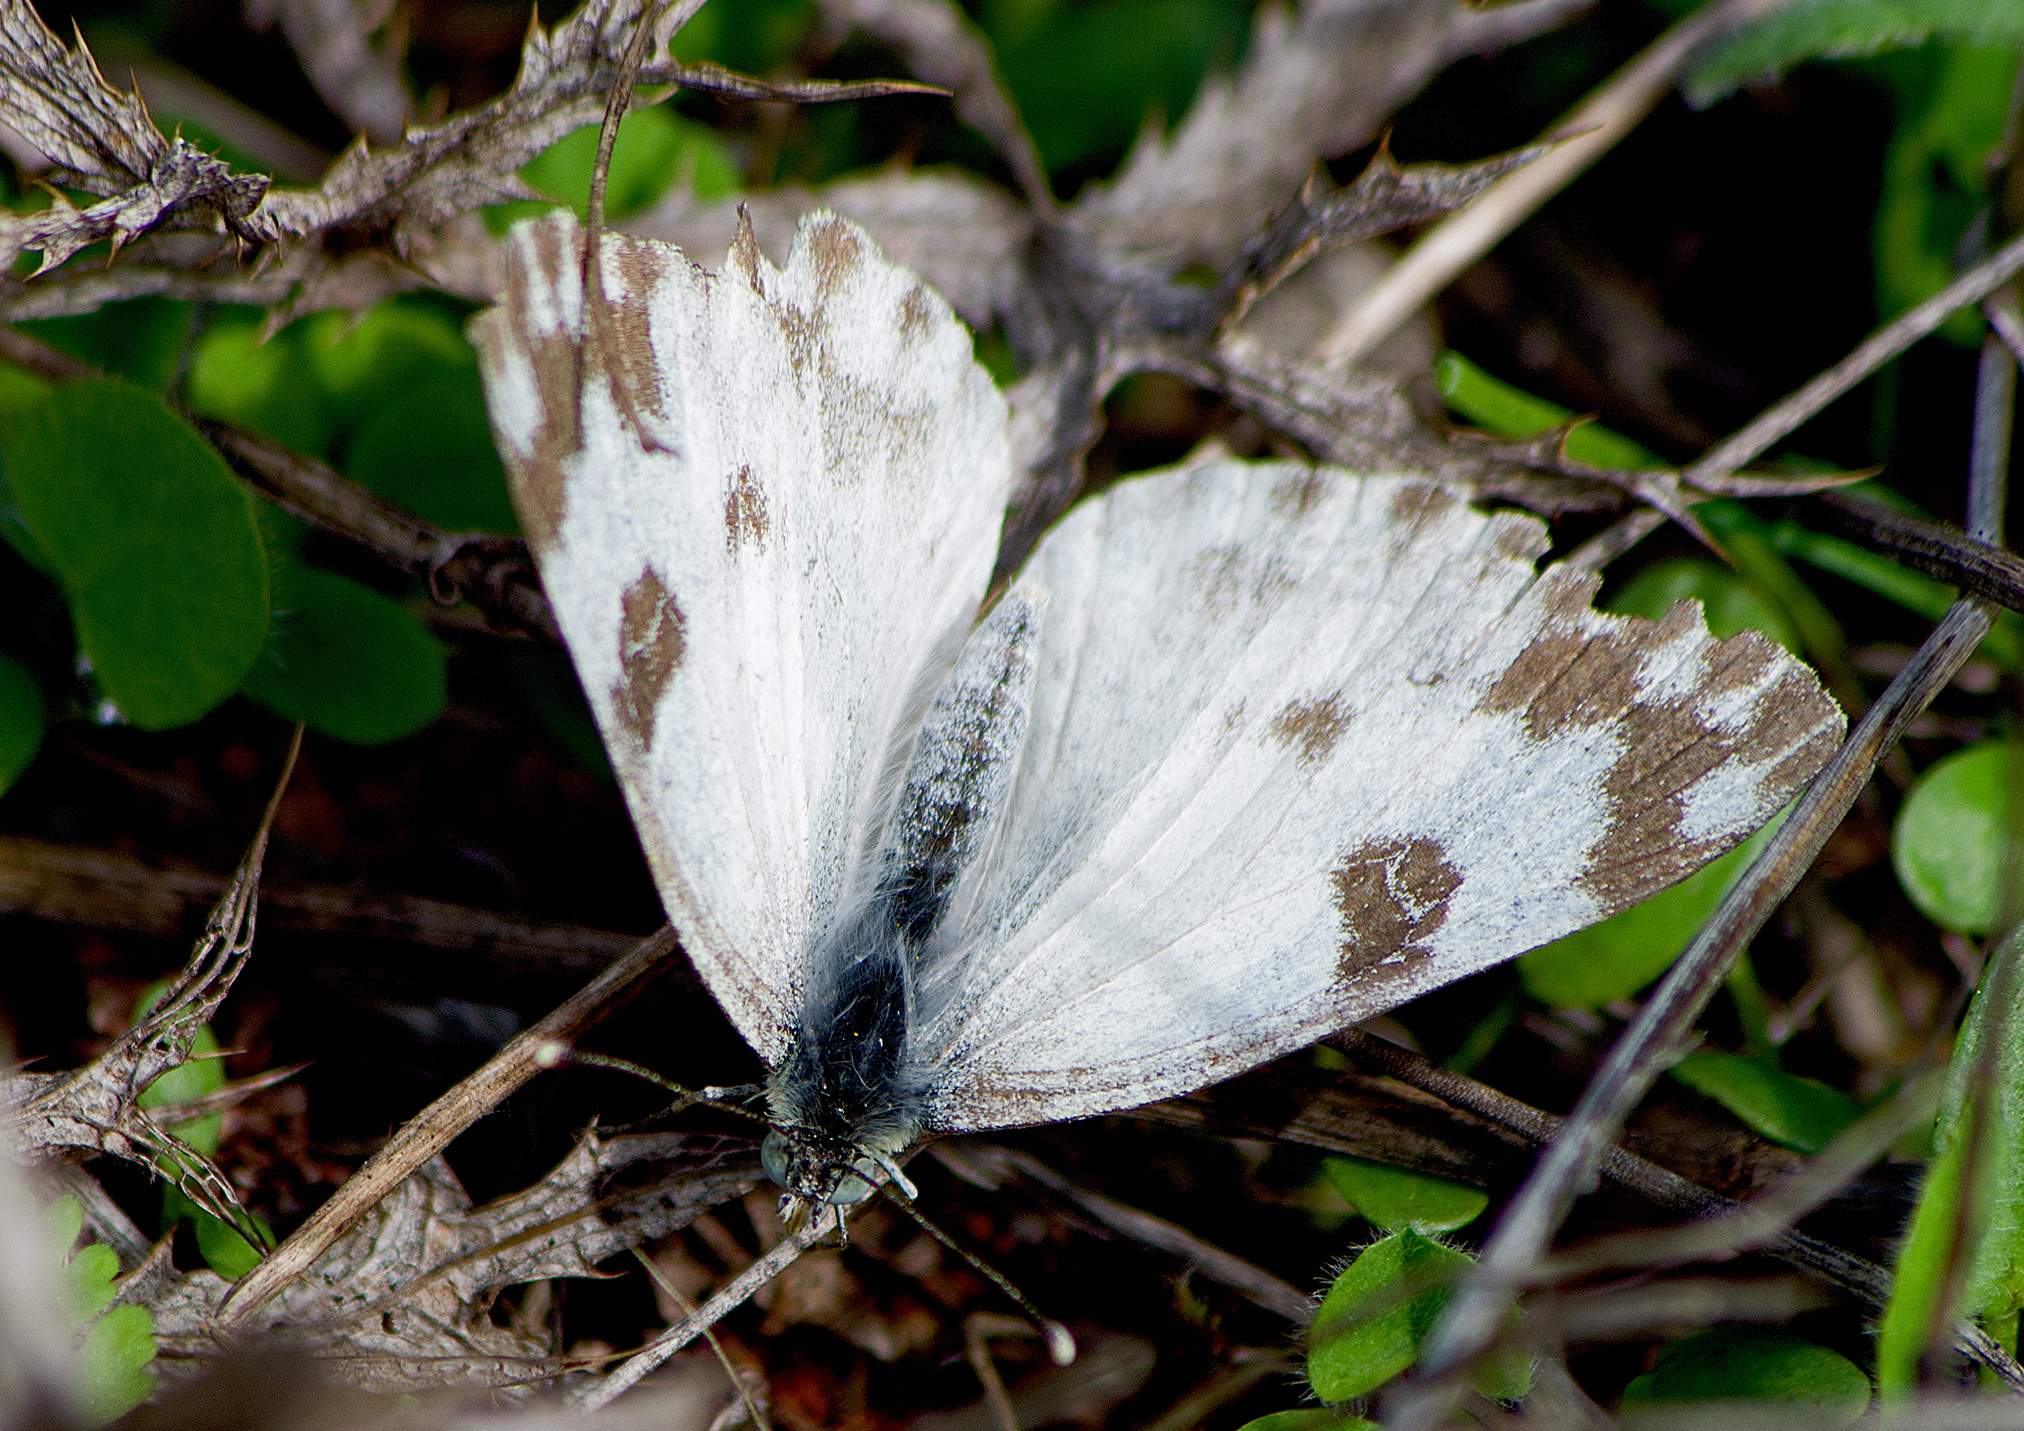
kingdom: Animalia
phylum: Arthropoda
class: Insecta
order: Lepidoptera
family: Pieridae
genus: Pontia
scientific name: Pontia edusa
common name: Eastern bath white
